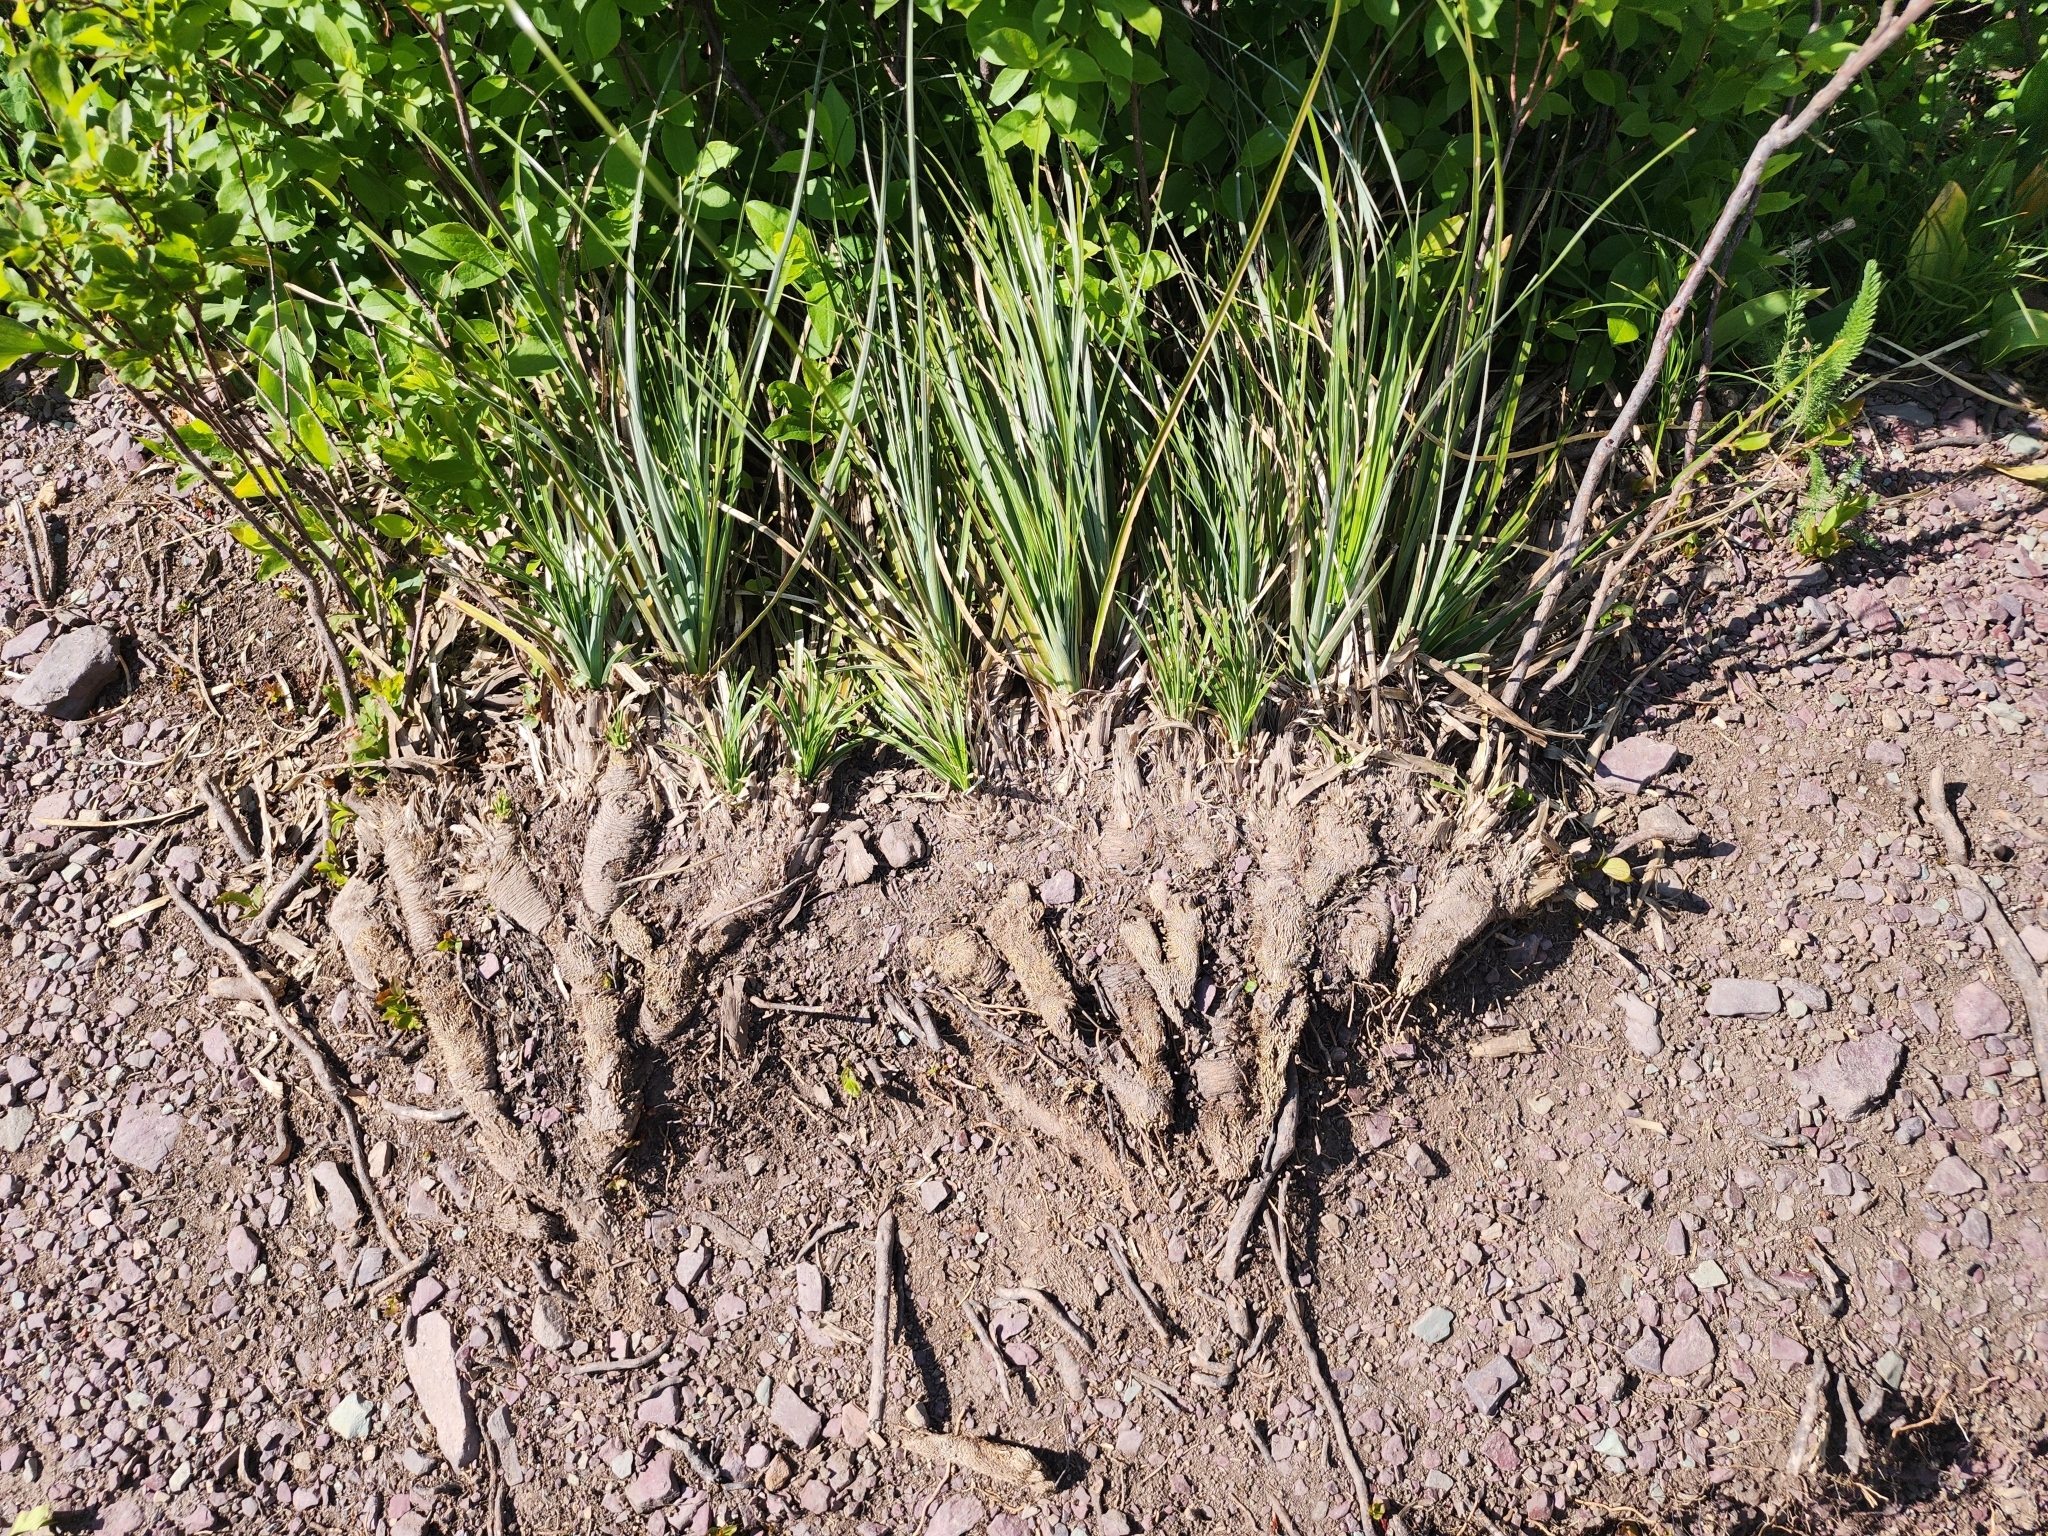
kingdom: Plantae
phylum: Tracheophyta
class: Liliopsida
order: Liliales
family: Melanthiaceae
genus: Xerophyllum
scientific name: Xerophyllum tenax
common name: Bear-grass
